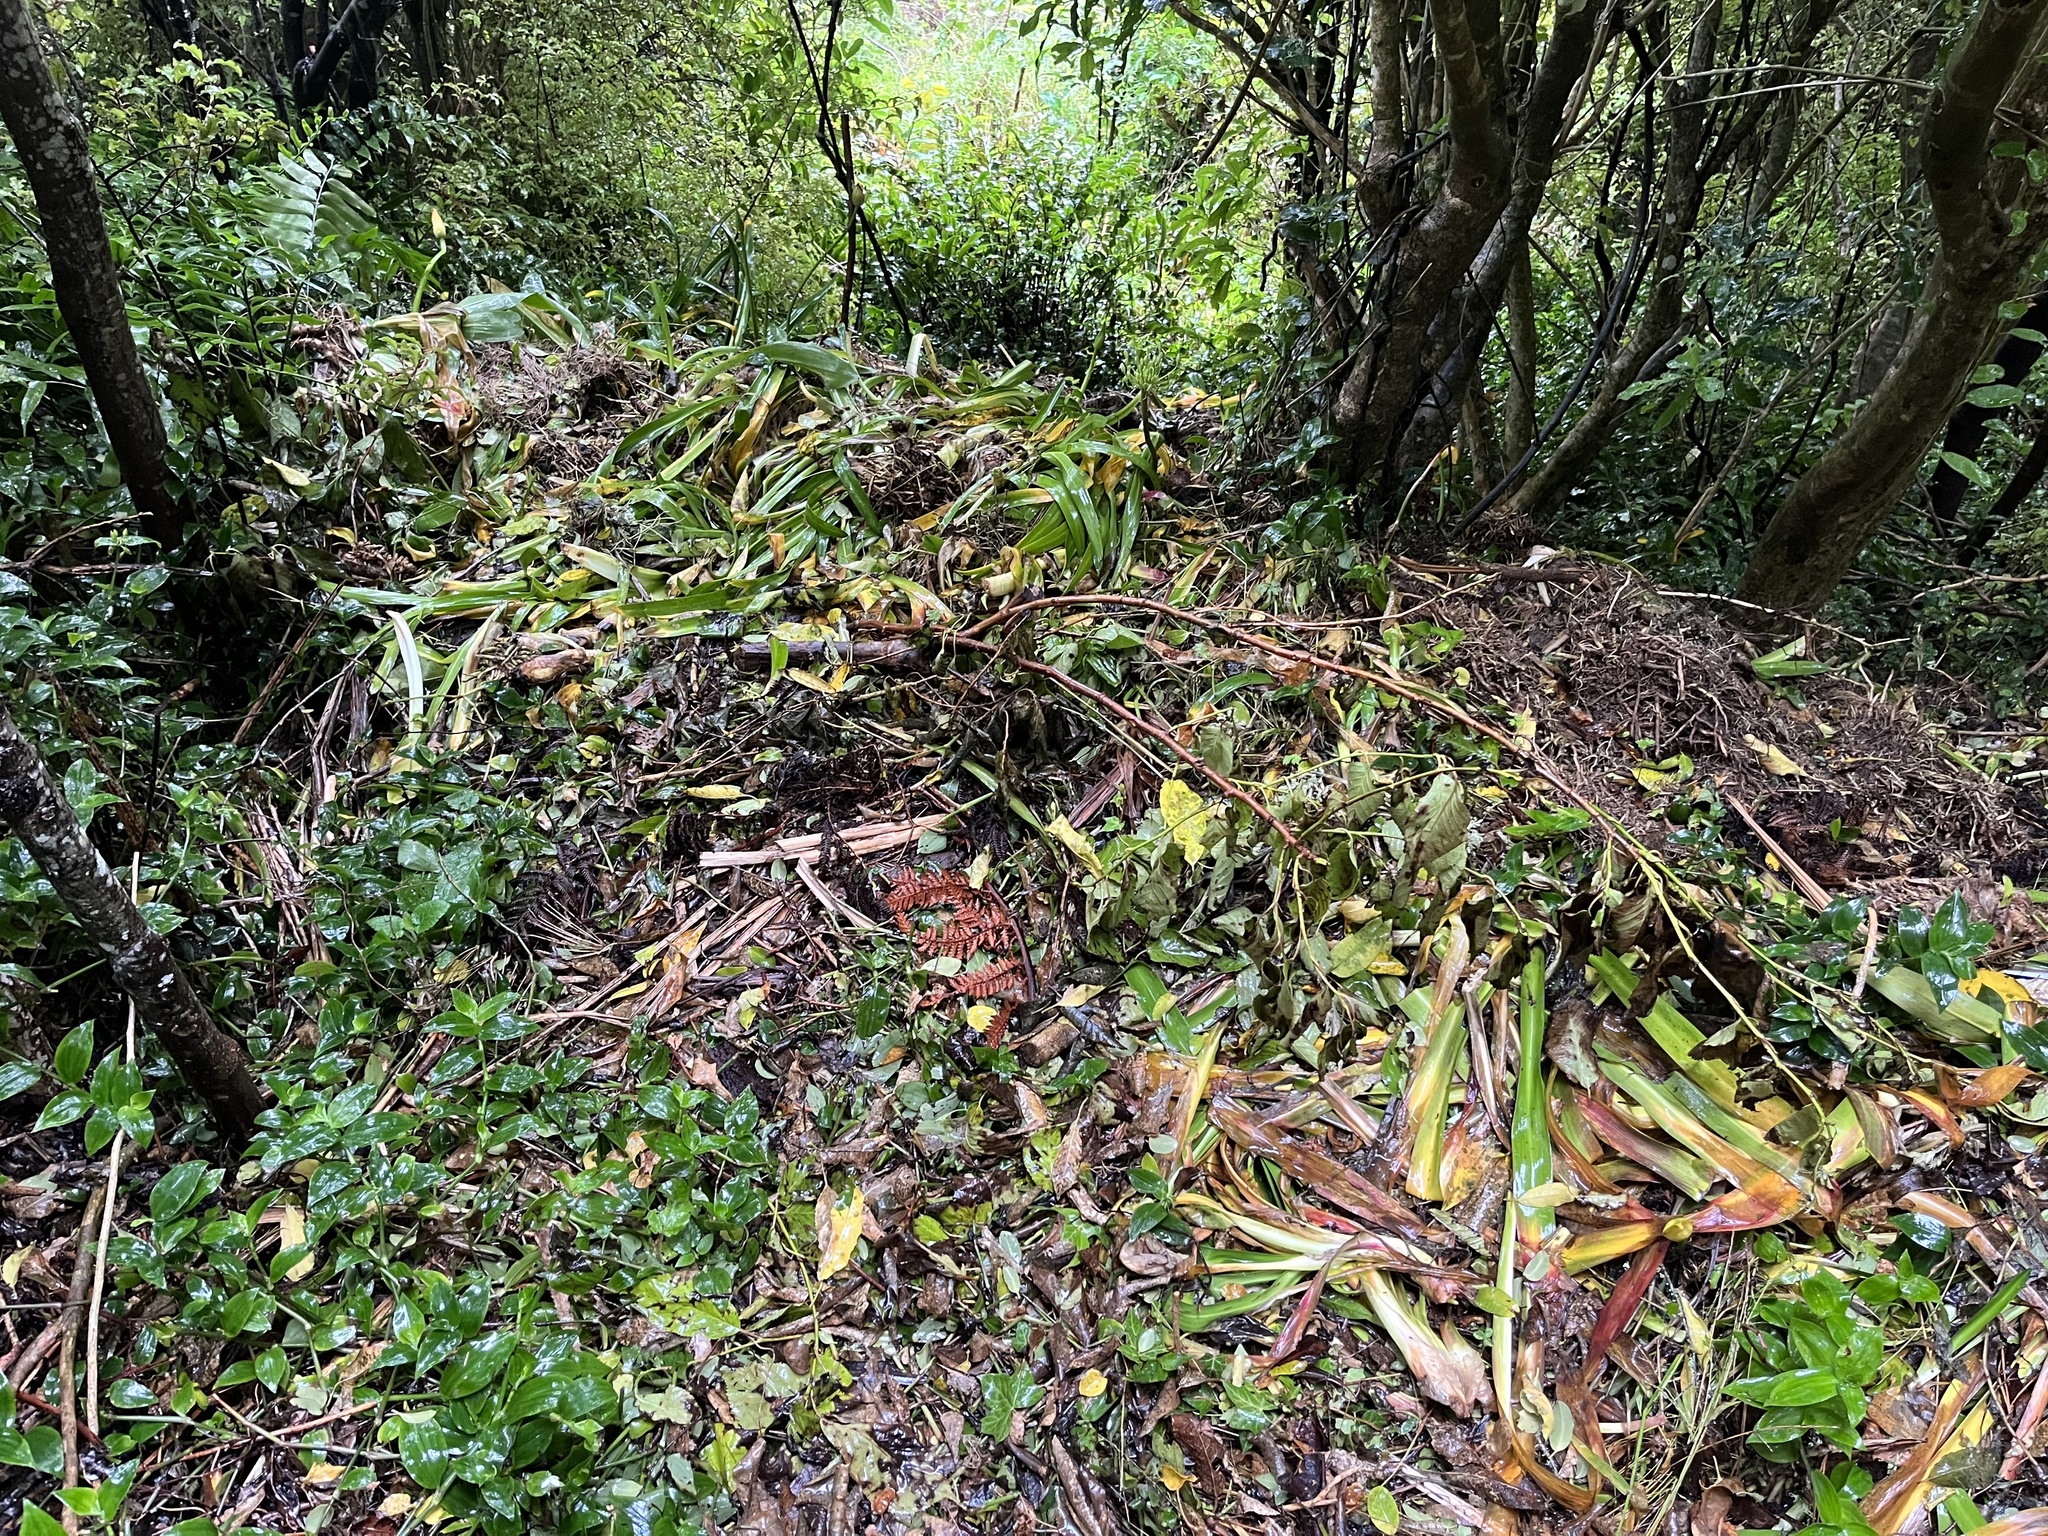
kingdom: Plantae
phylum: Tracheophyta
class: Liliopsida
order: Asparagales
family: Amaryllidaceae
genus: Agapanthus
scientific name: Agapanthus praecox
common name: African-lily
